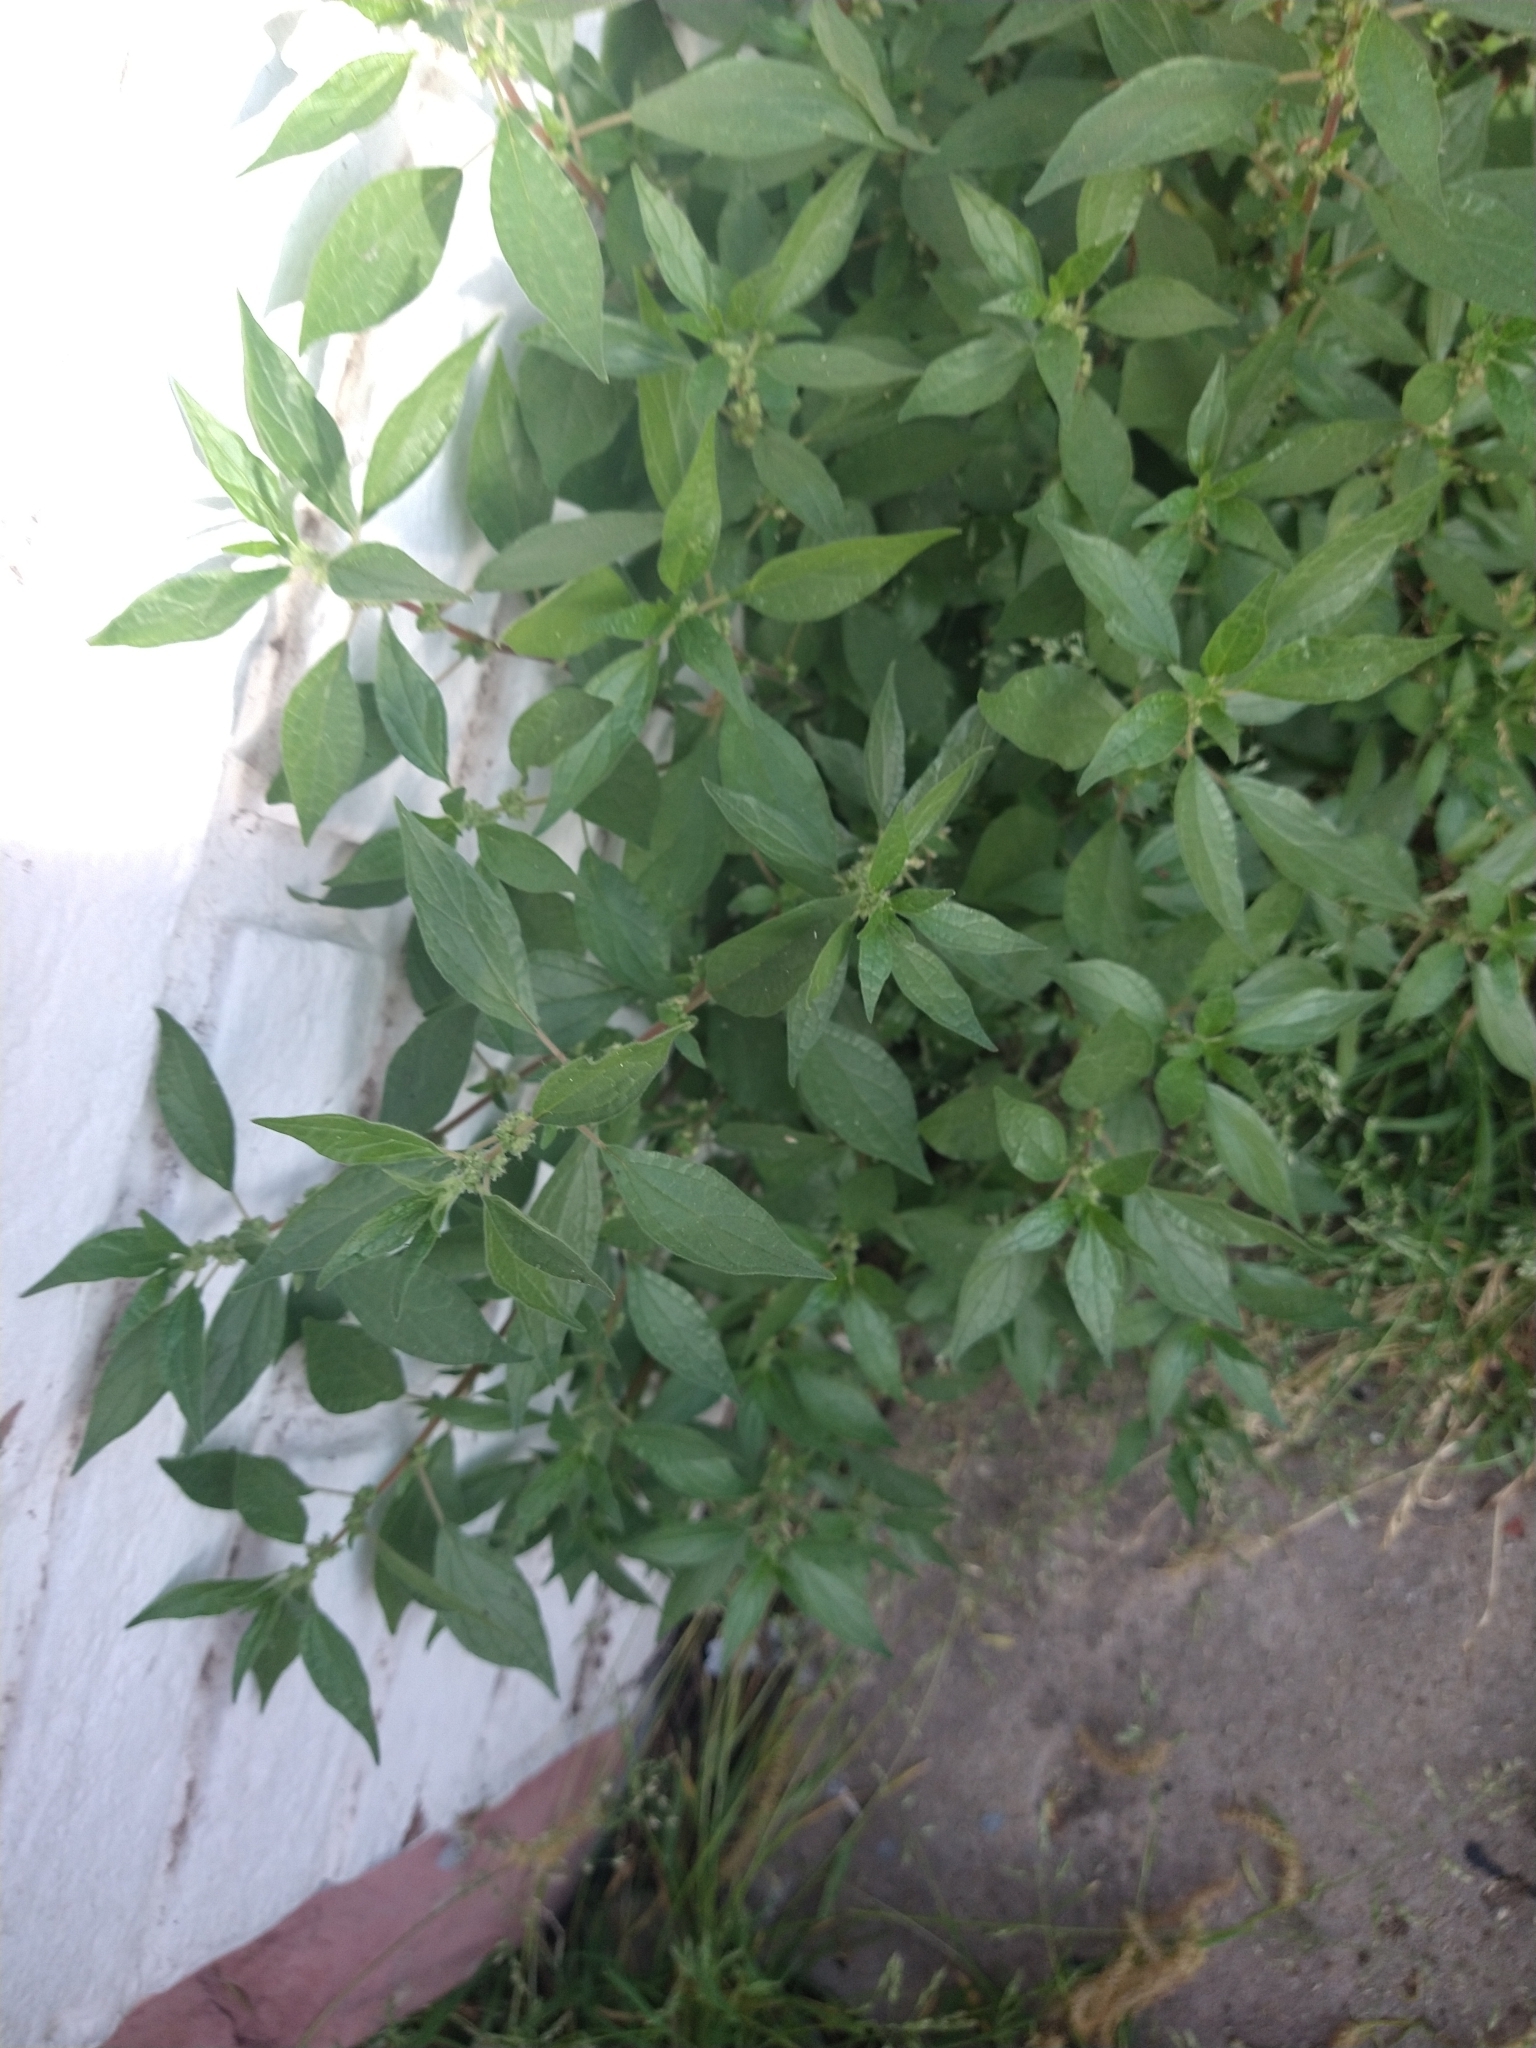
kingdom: Plantae
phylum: Tracheophyta
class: Magnoliopsida
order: Rosales
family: Urticaceae
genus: Parietaria
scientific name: Parietaria officinalis
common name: Eastern pellitory-of-the-wall
